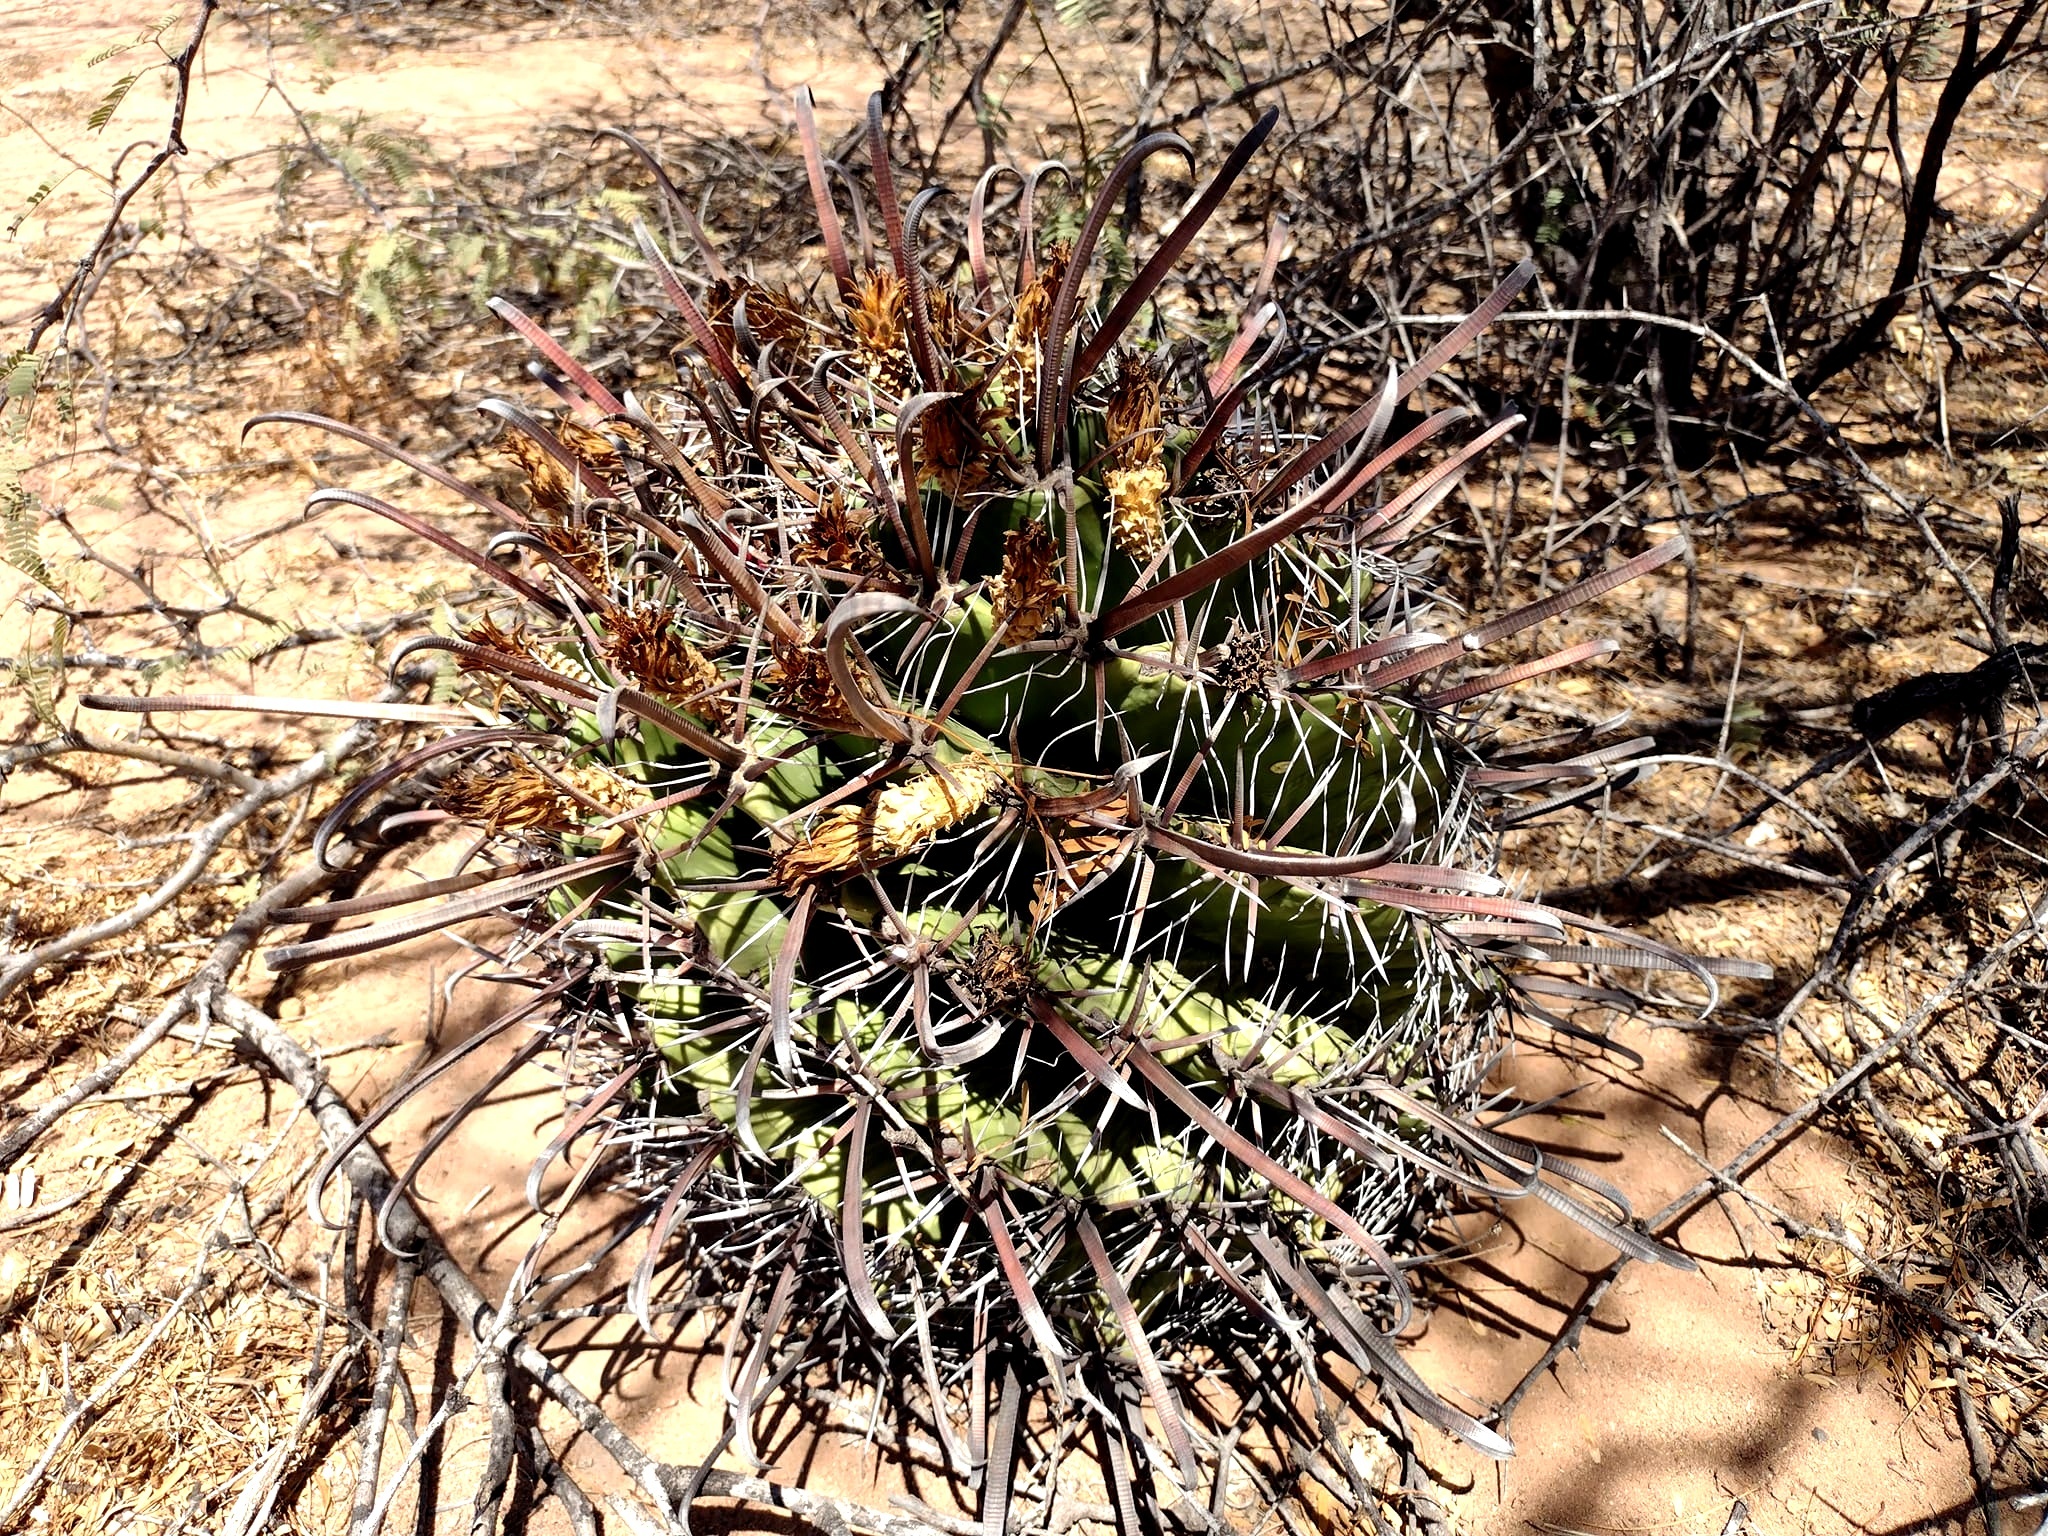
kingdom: Plantae
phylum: Tracheophyta
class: Magnoliopsida
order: Caryophyllales
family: Cactaceae
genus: Ferocactus
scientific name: Ferocactus wislizeni
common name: Candy barrel cactus
